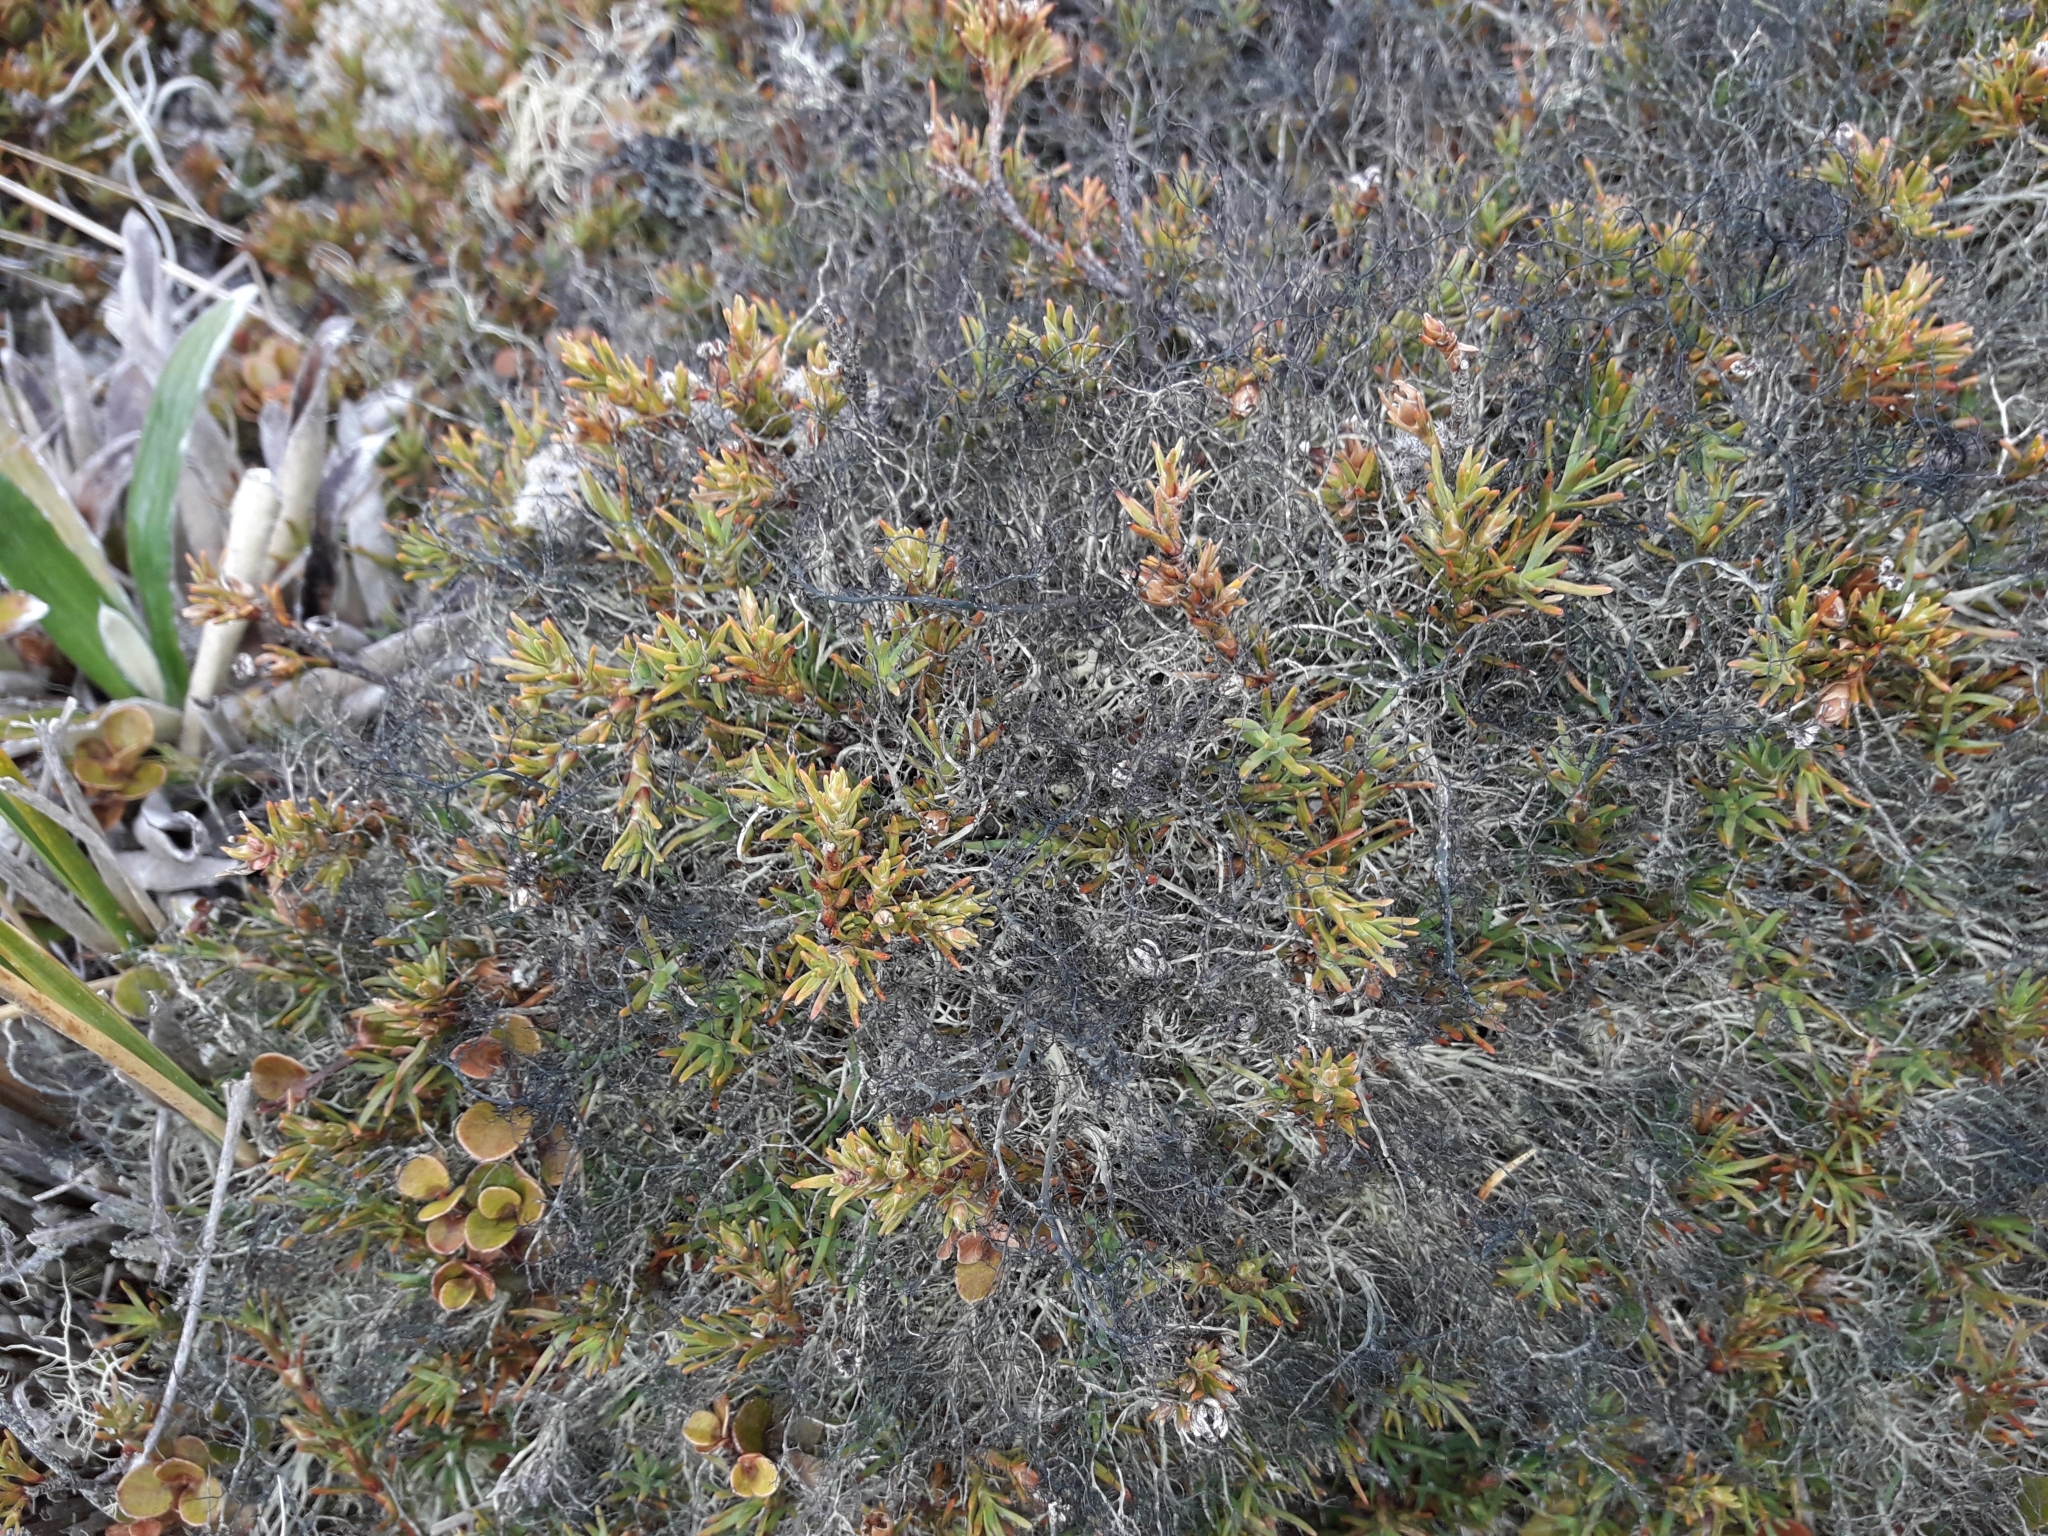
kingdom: Fungi
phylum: Ascomycota
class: Lecanoromycetes
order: Lecanorales
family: Parmeliaceae
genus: Gowardia
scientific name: Gowardia nigricans
